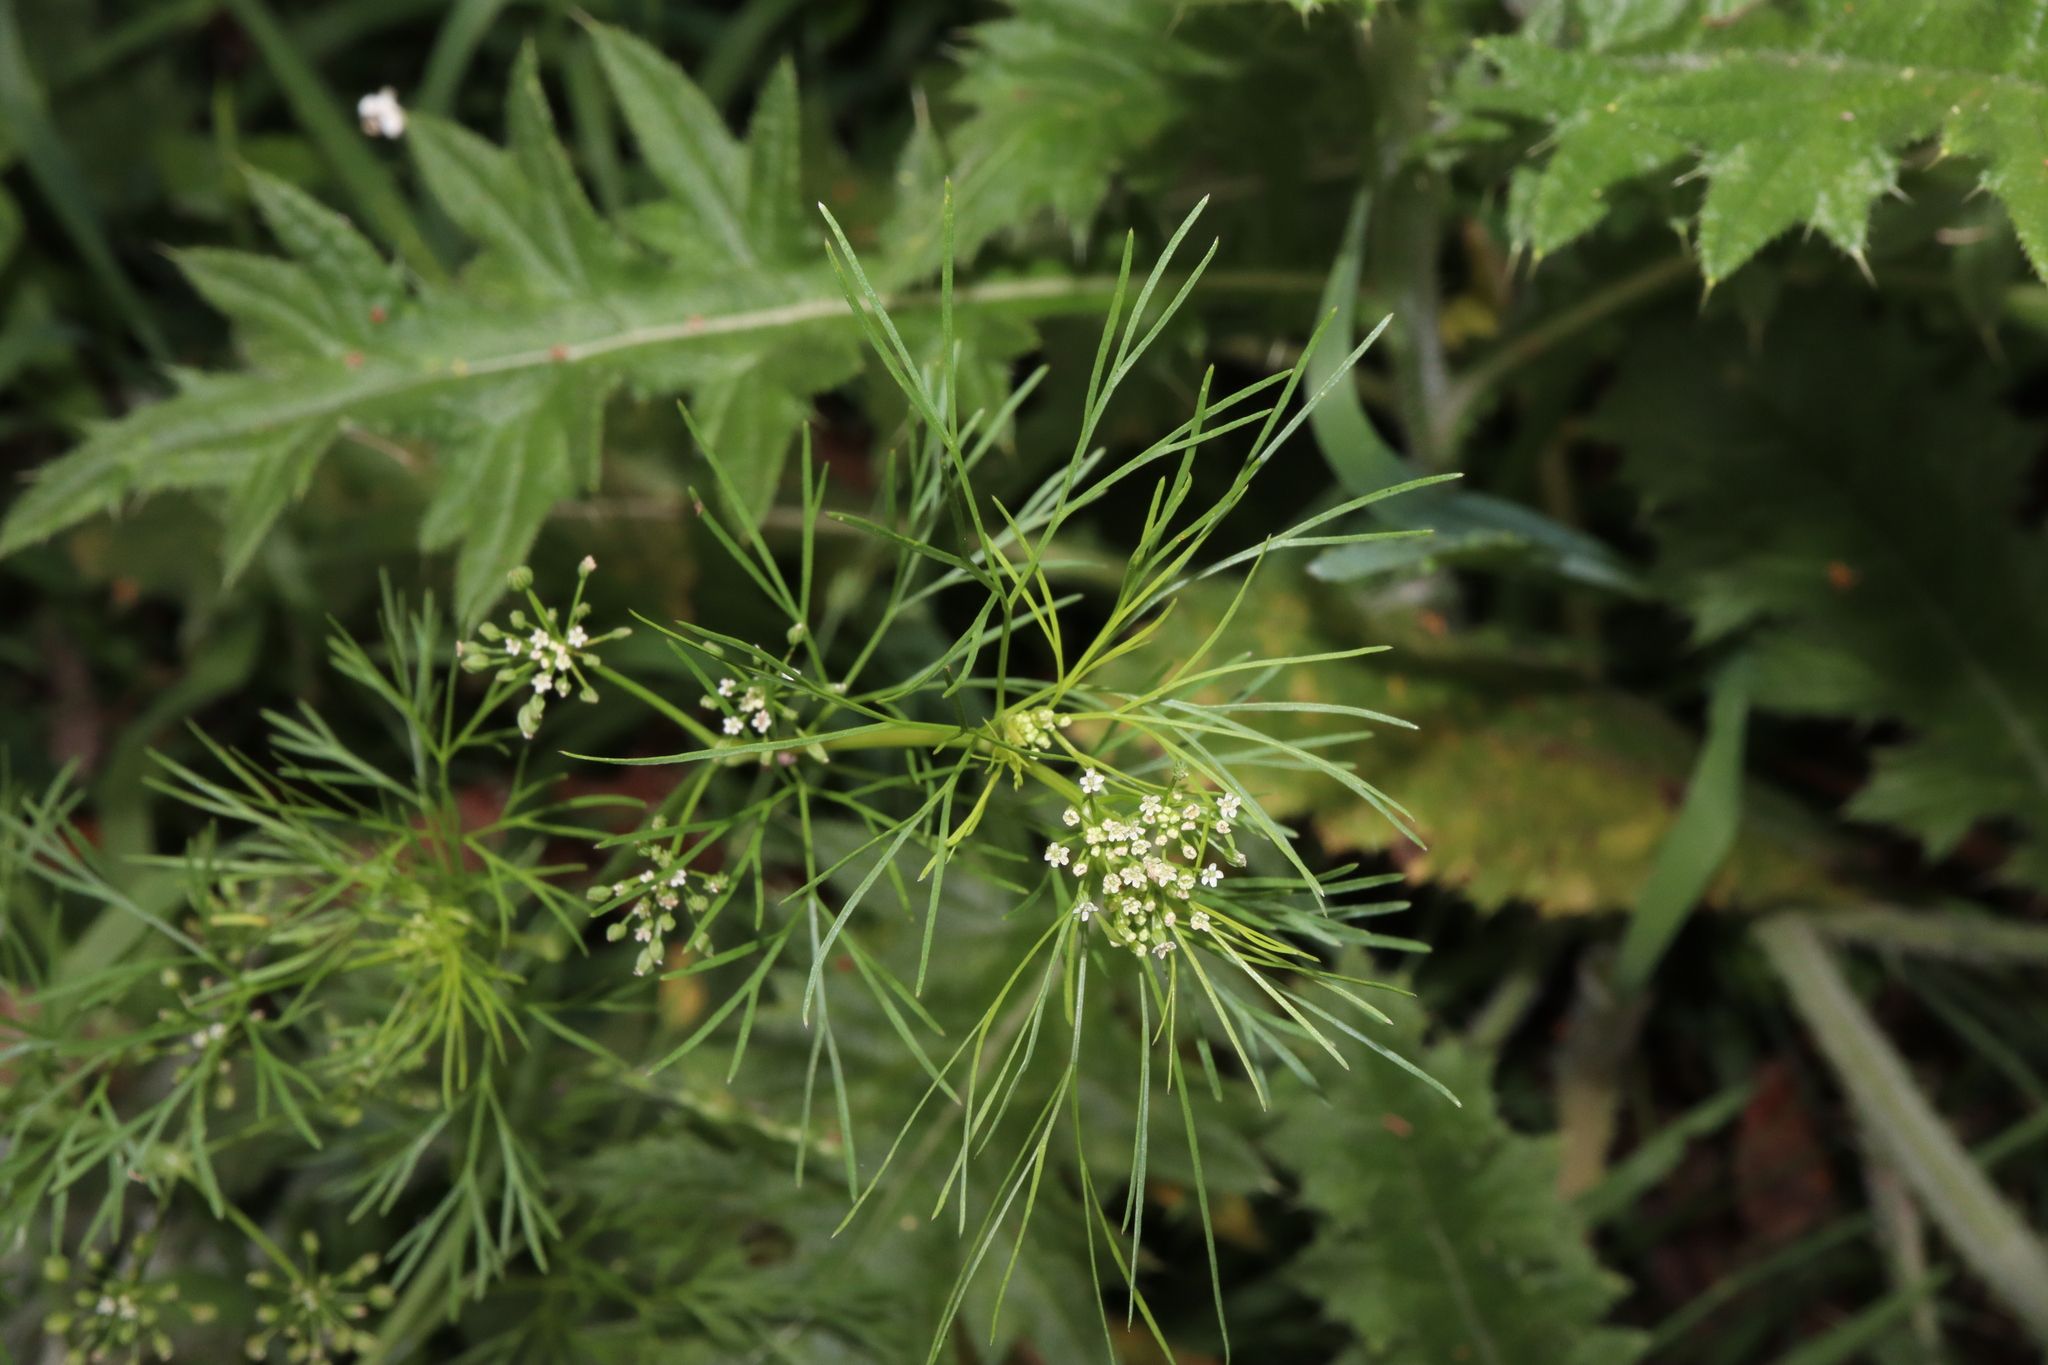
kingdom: Plantae
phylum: Tracheophyta
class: Magnoliopsida
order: Apiales
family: Apiaceae
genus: Cyclospermum
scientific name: Cyclospermum leptophyllum
